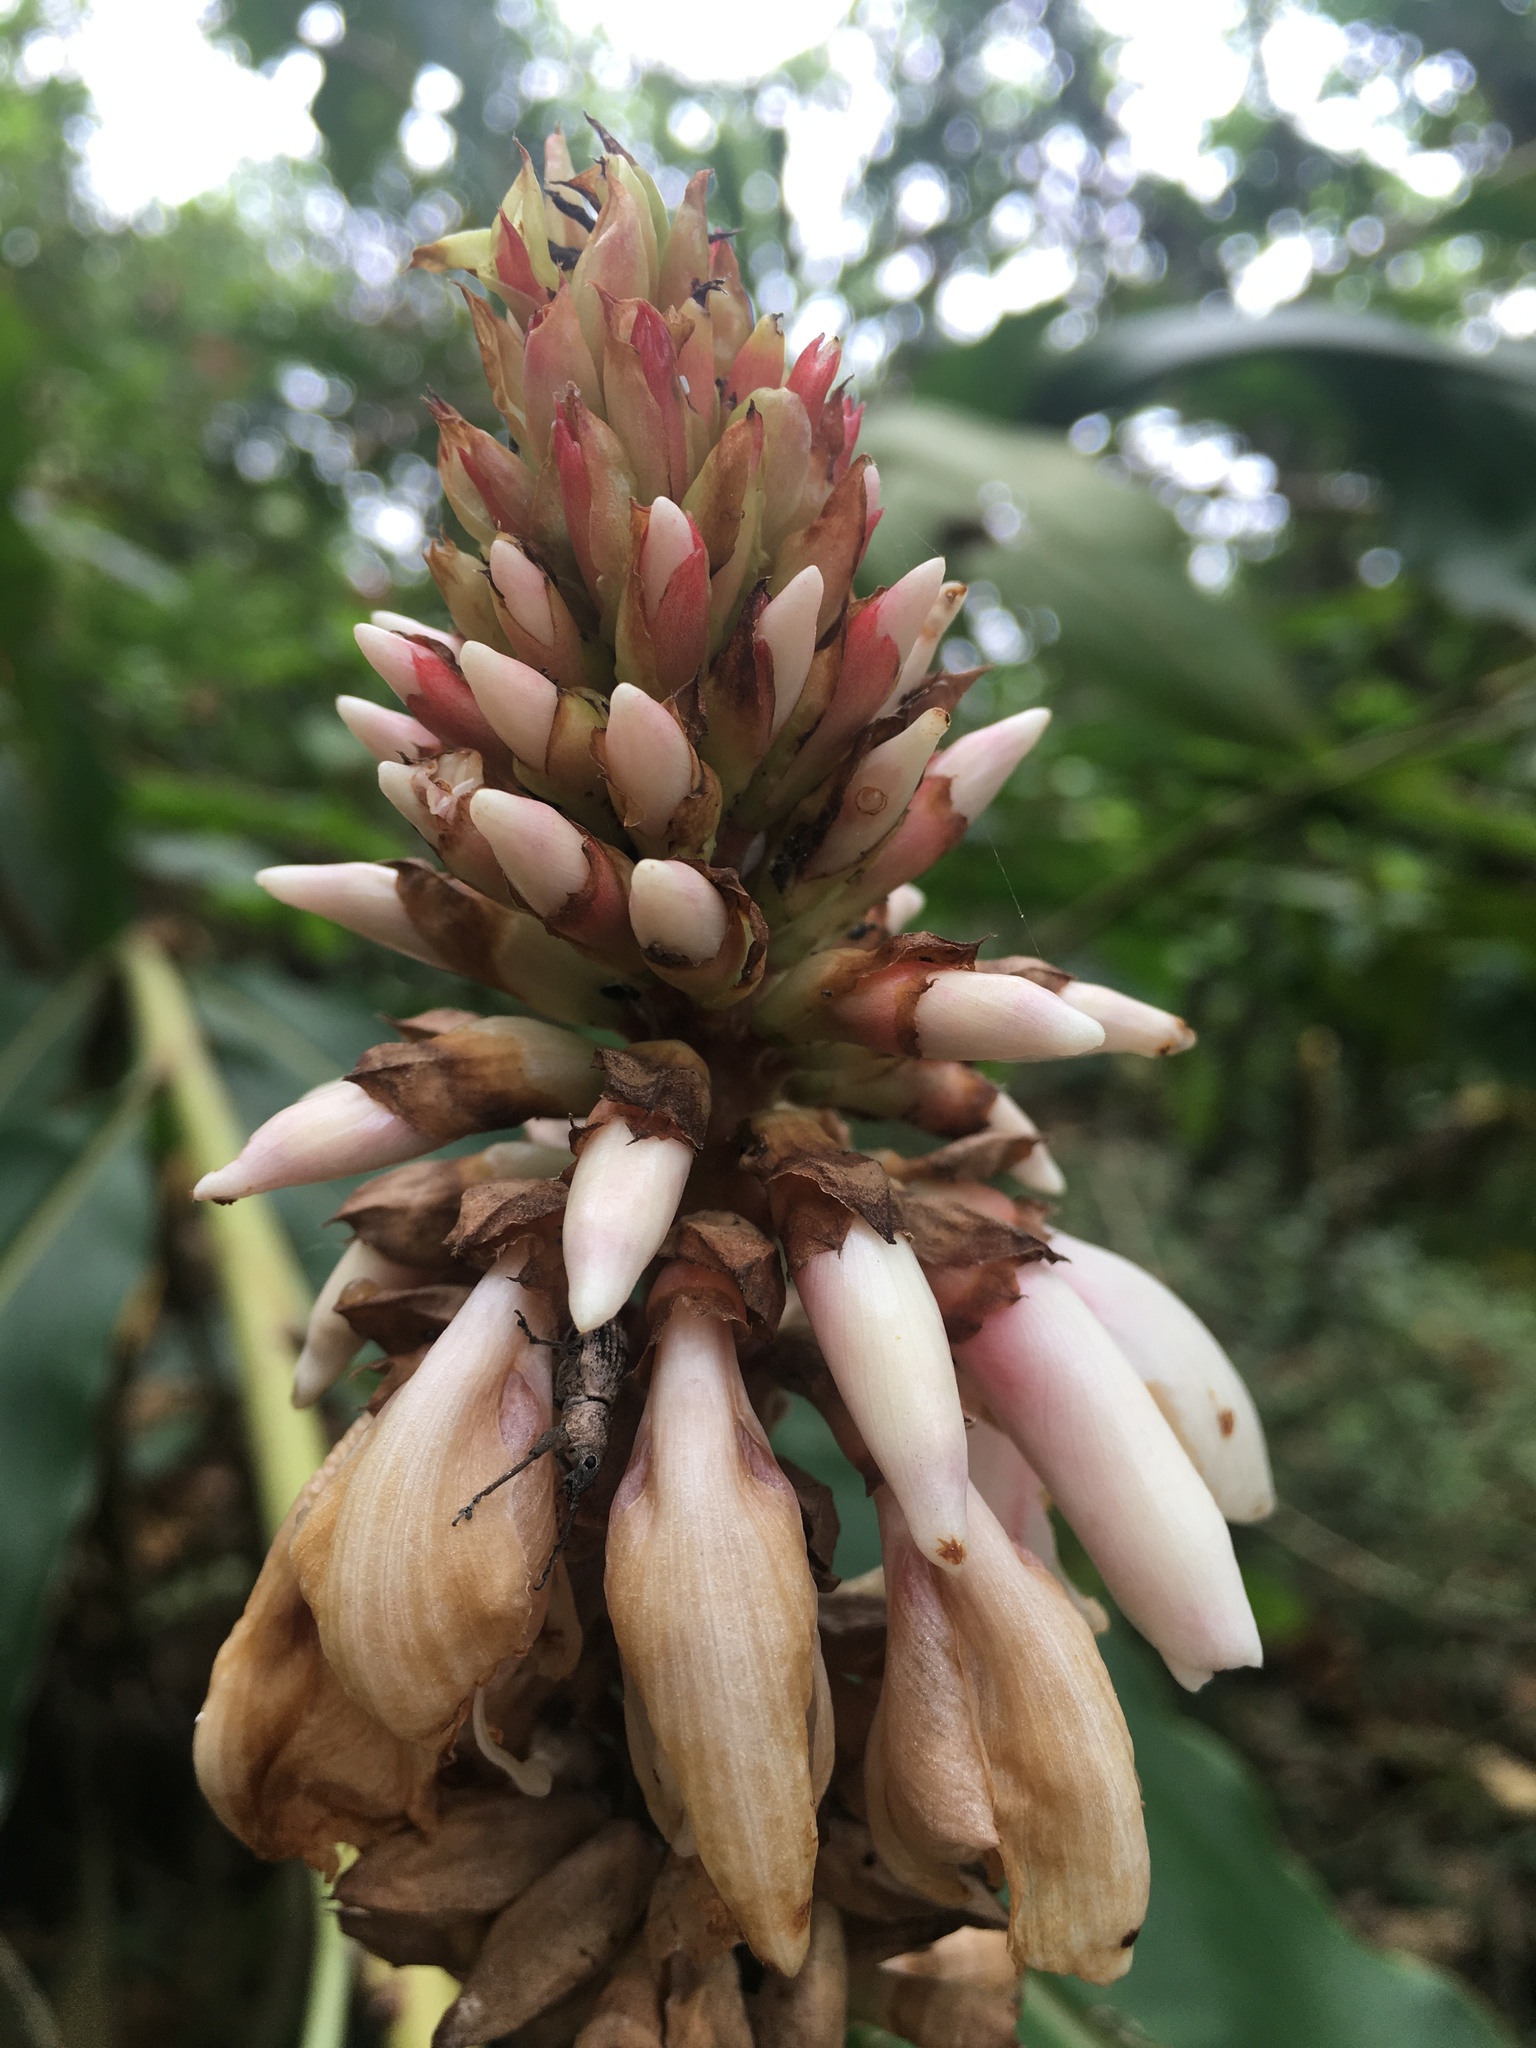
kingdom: Animalia
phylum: Arthropoda
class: Insecta
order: Coleoptera
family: Curculionidae
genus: Sympiezomias
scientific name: Sympiezomias cribricollis
